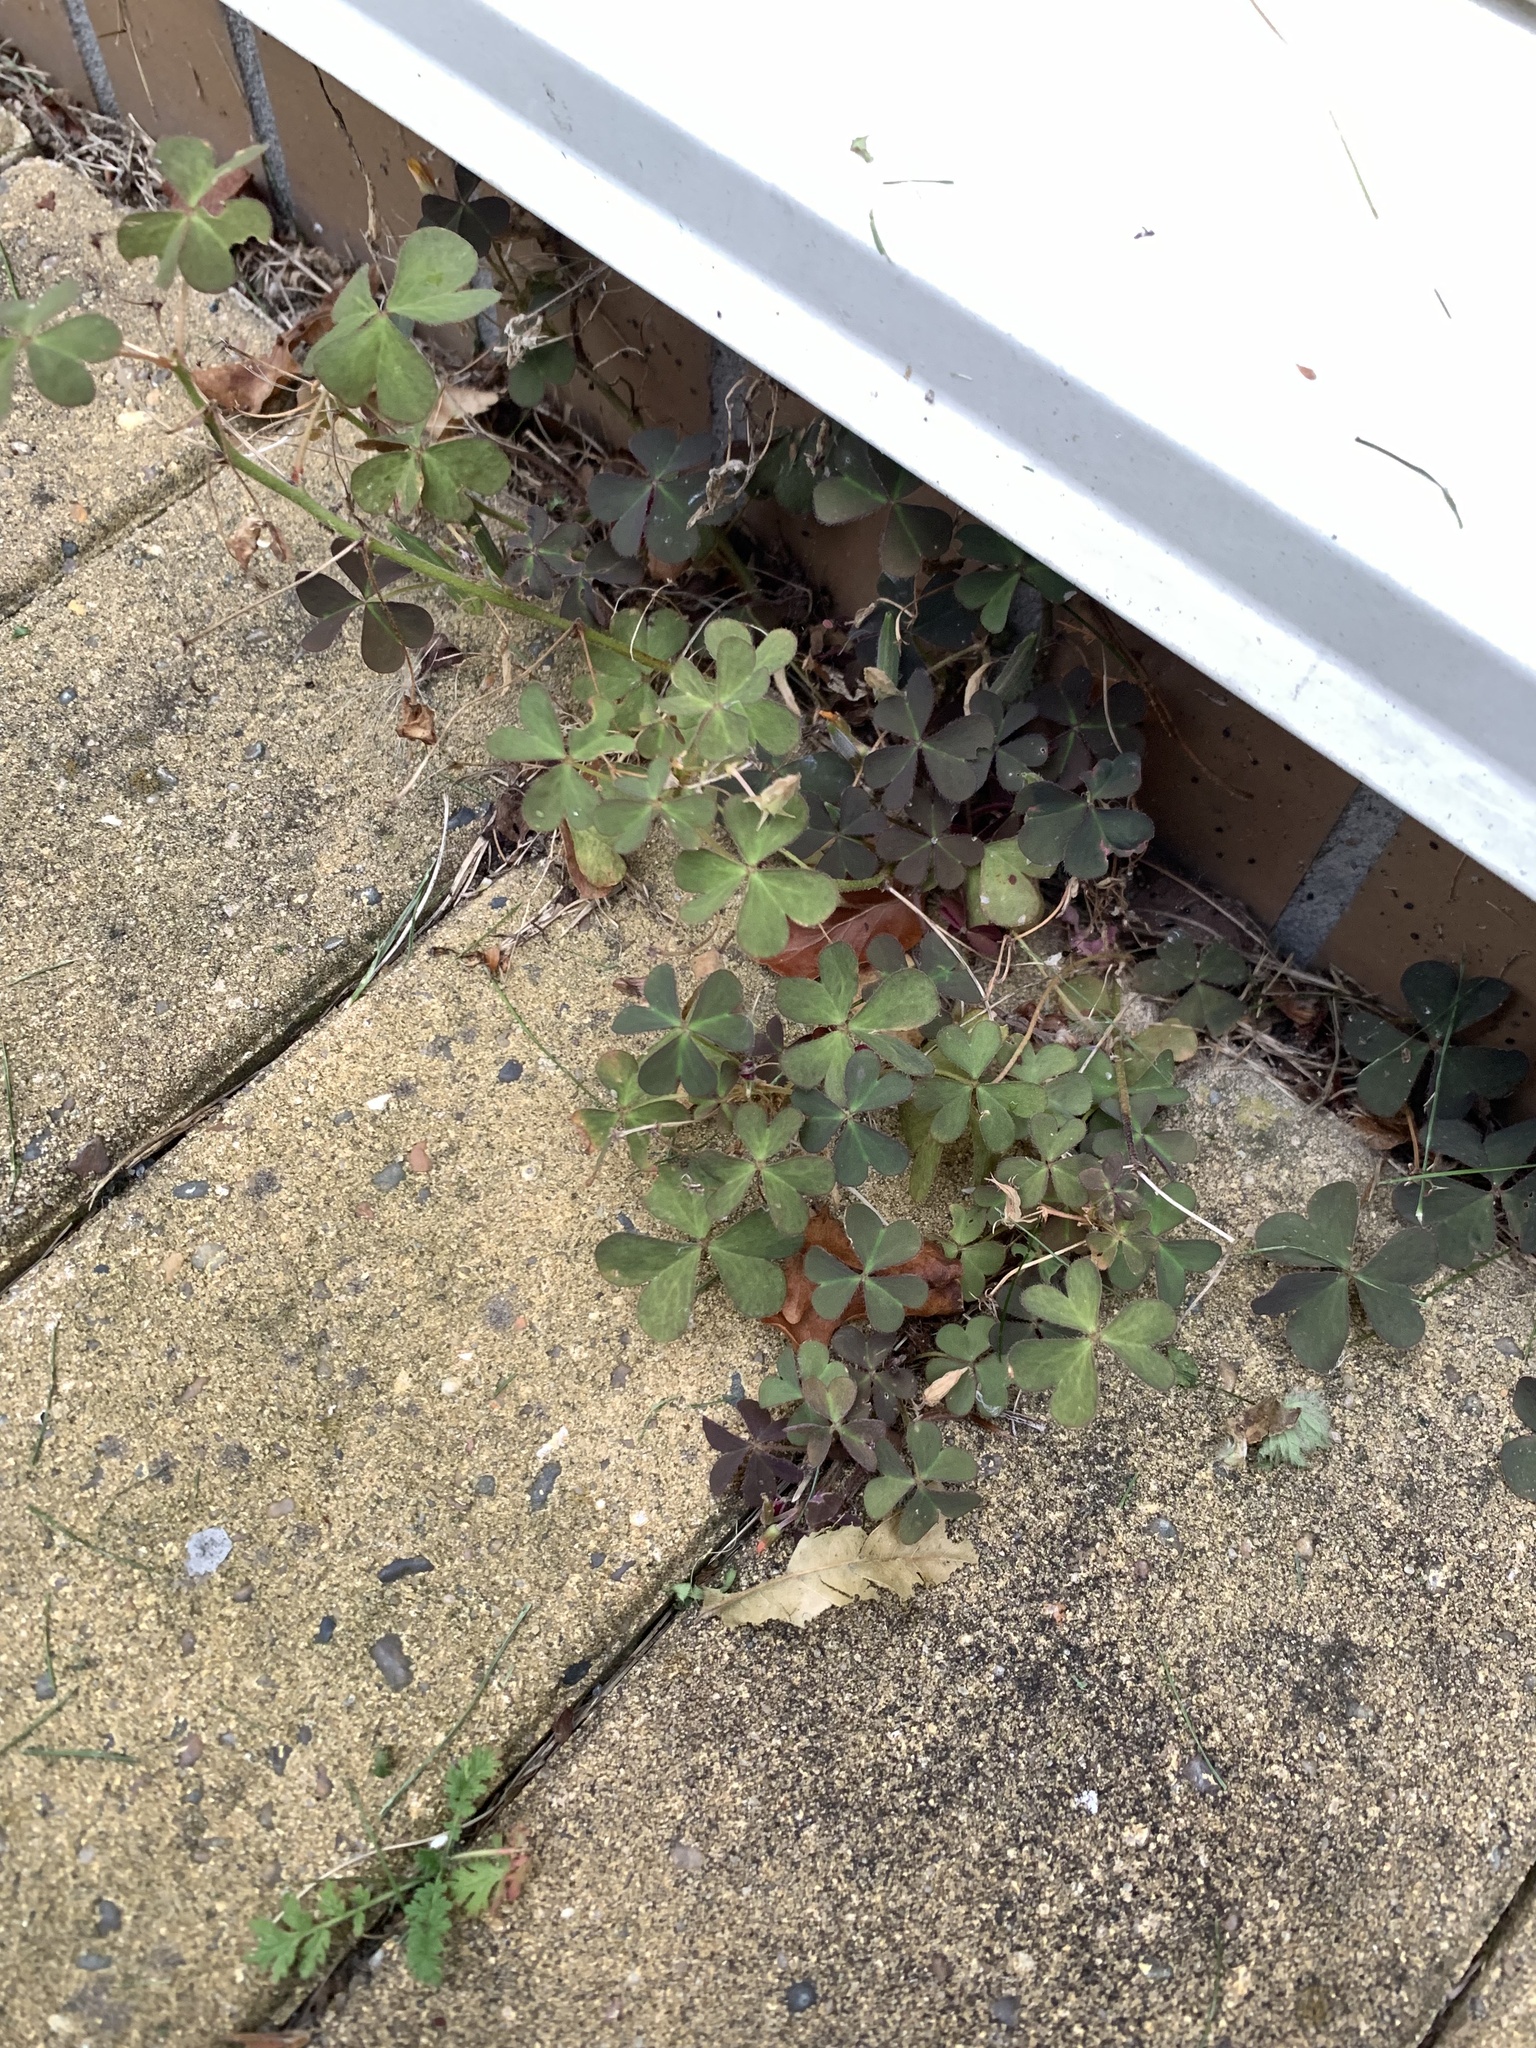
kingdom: Plantae
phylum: Tracheophyta
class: Magnoliopsida
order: Oxalidales
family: Oxalidaceae
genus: Oxalis
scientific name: Oxalis corniculata
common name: Procumbent yellow-sorrel
